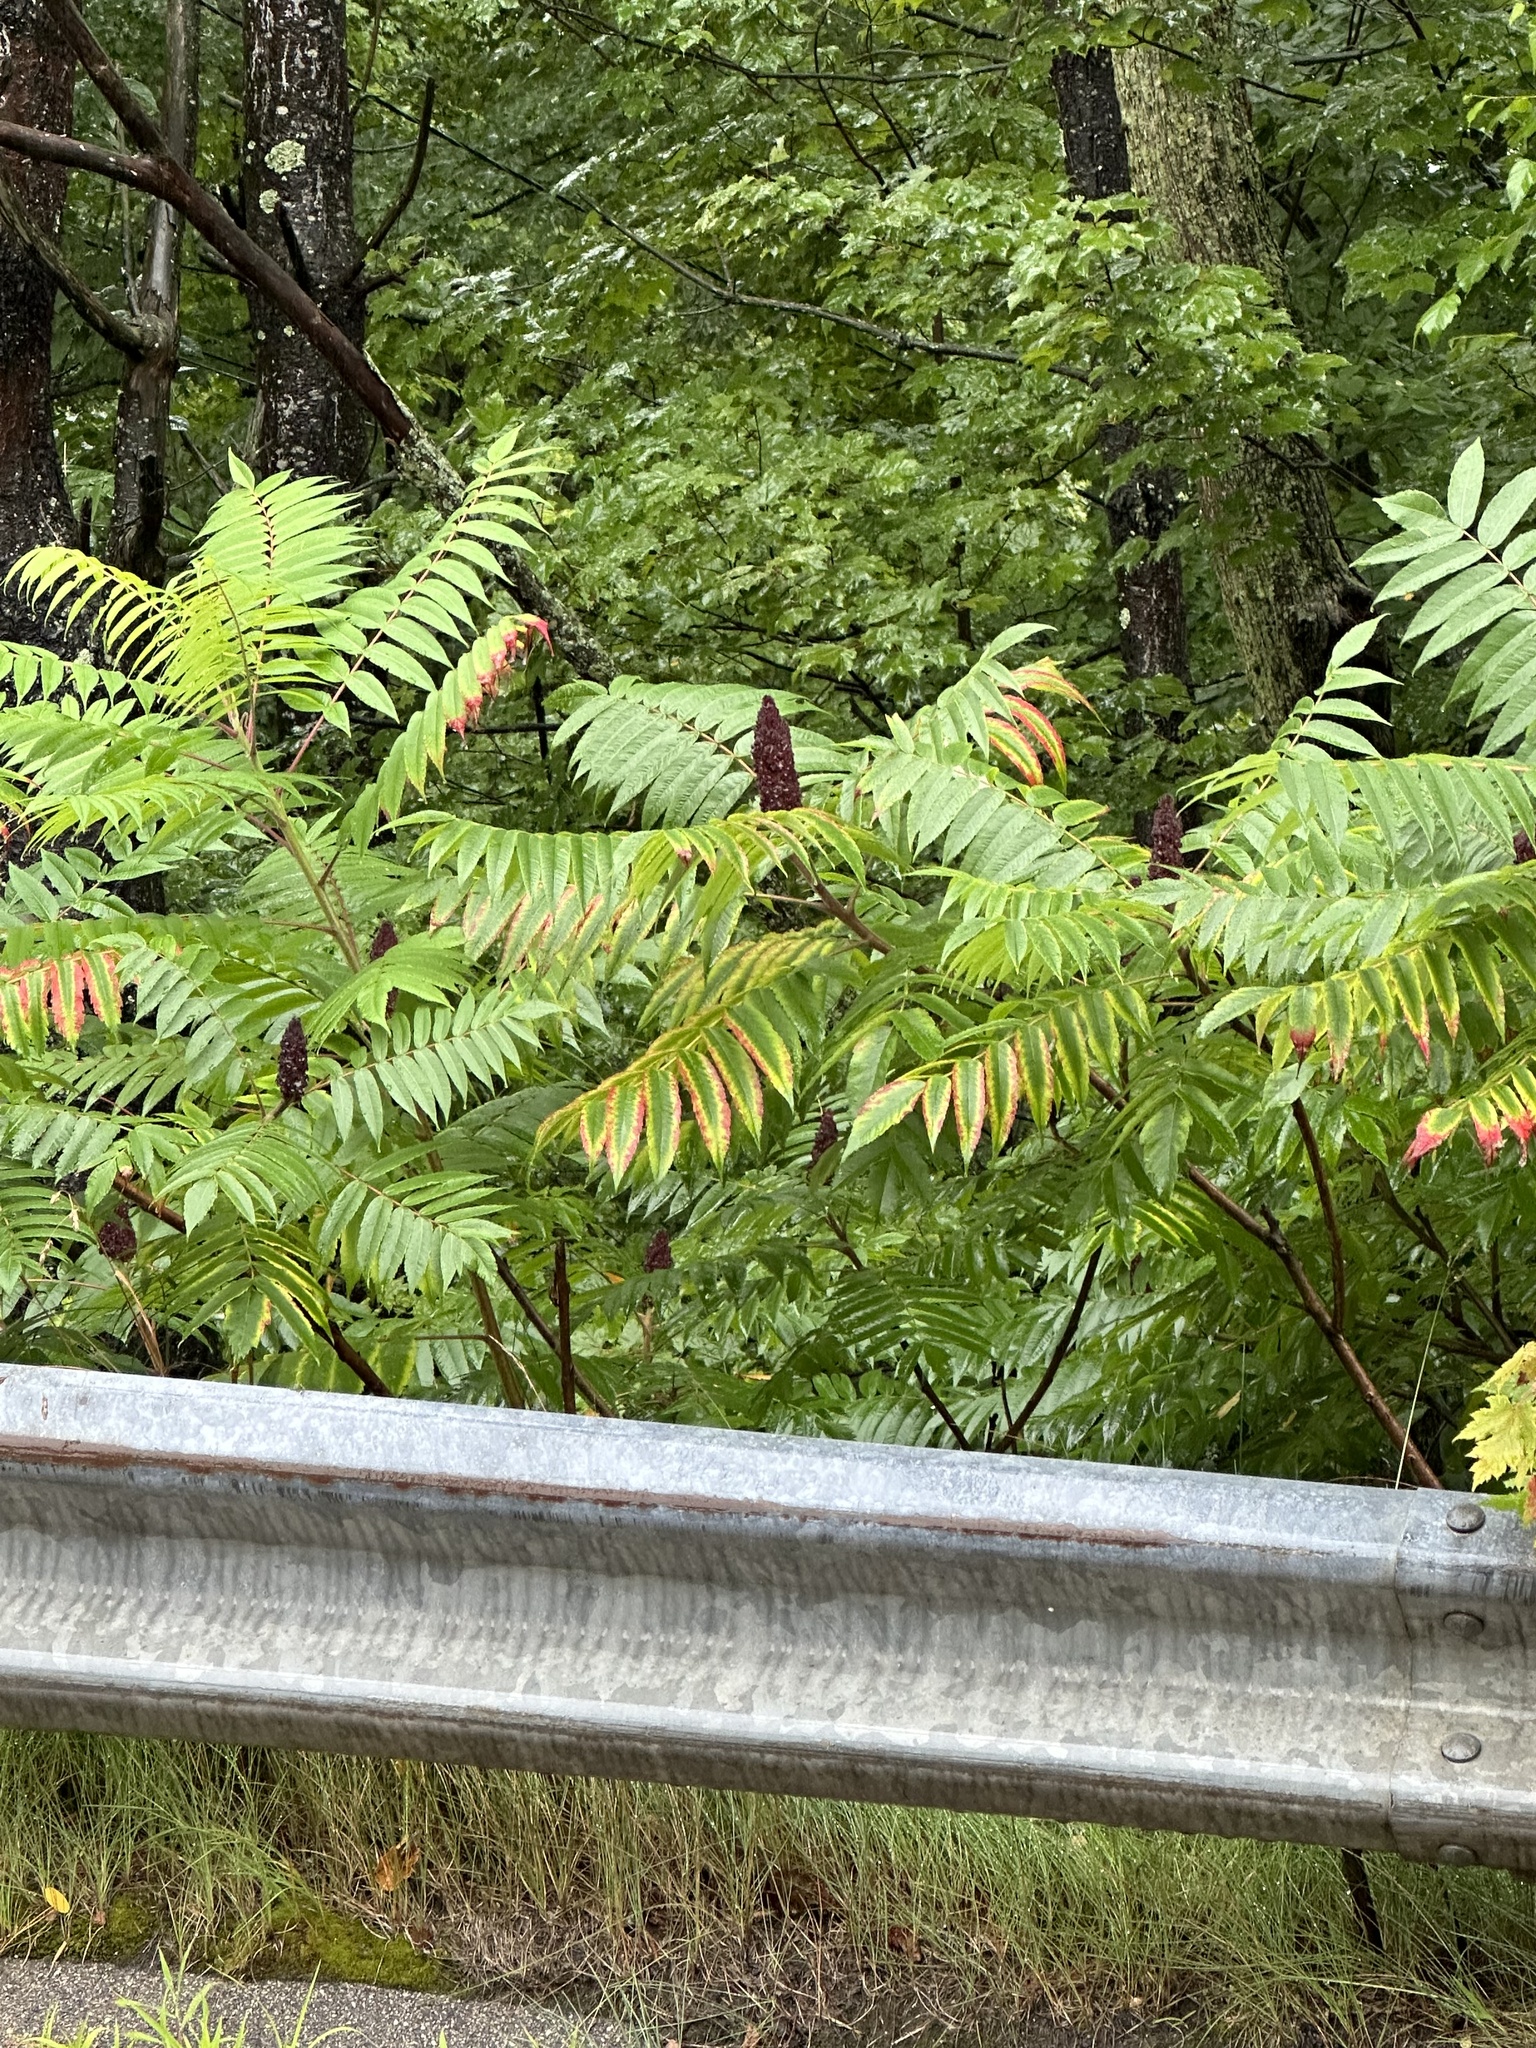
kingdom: Plantae
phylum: Tracheophyta
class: Magnoliopsida
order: Sapindales
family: Anacardiaceae
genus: Rhus
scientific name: Rhus typhina
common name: Staghorn sumac
